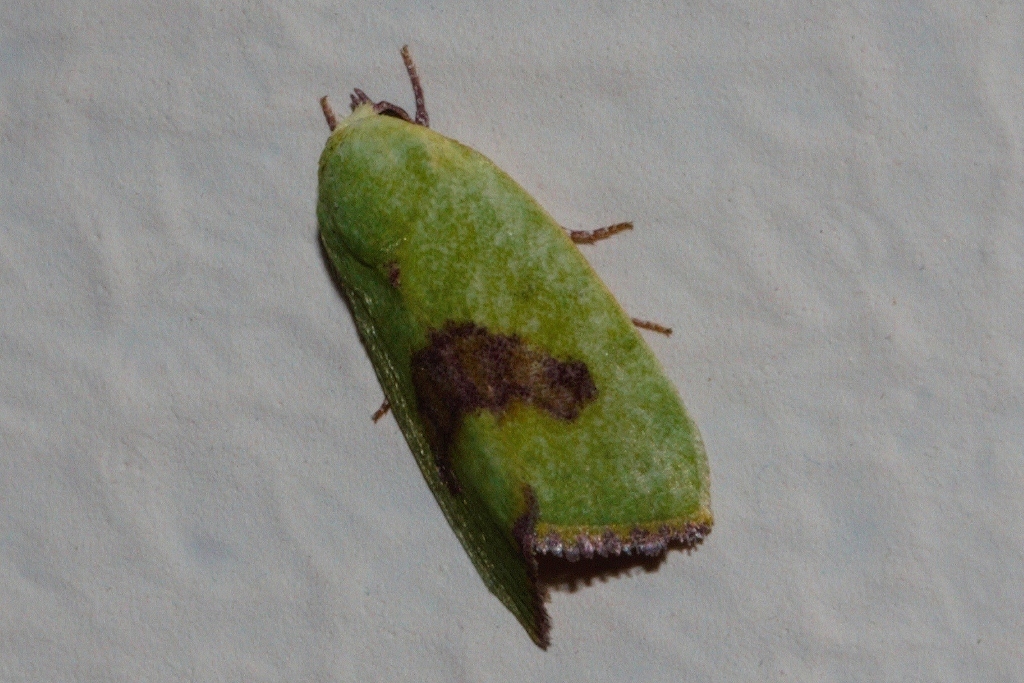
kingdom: Animalia
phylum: Arthropoda
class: Insecta
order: Lepidoptera
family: Nolidae
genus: Earias
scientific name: Earias biplaga
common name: Spiny bollworm
